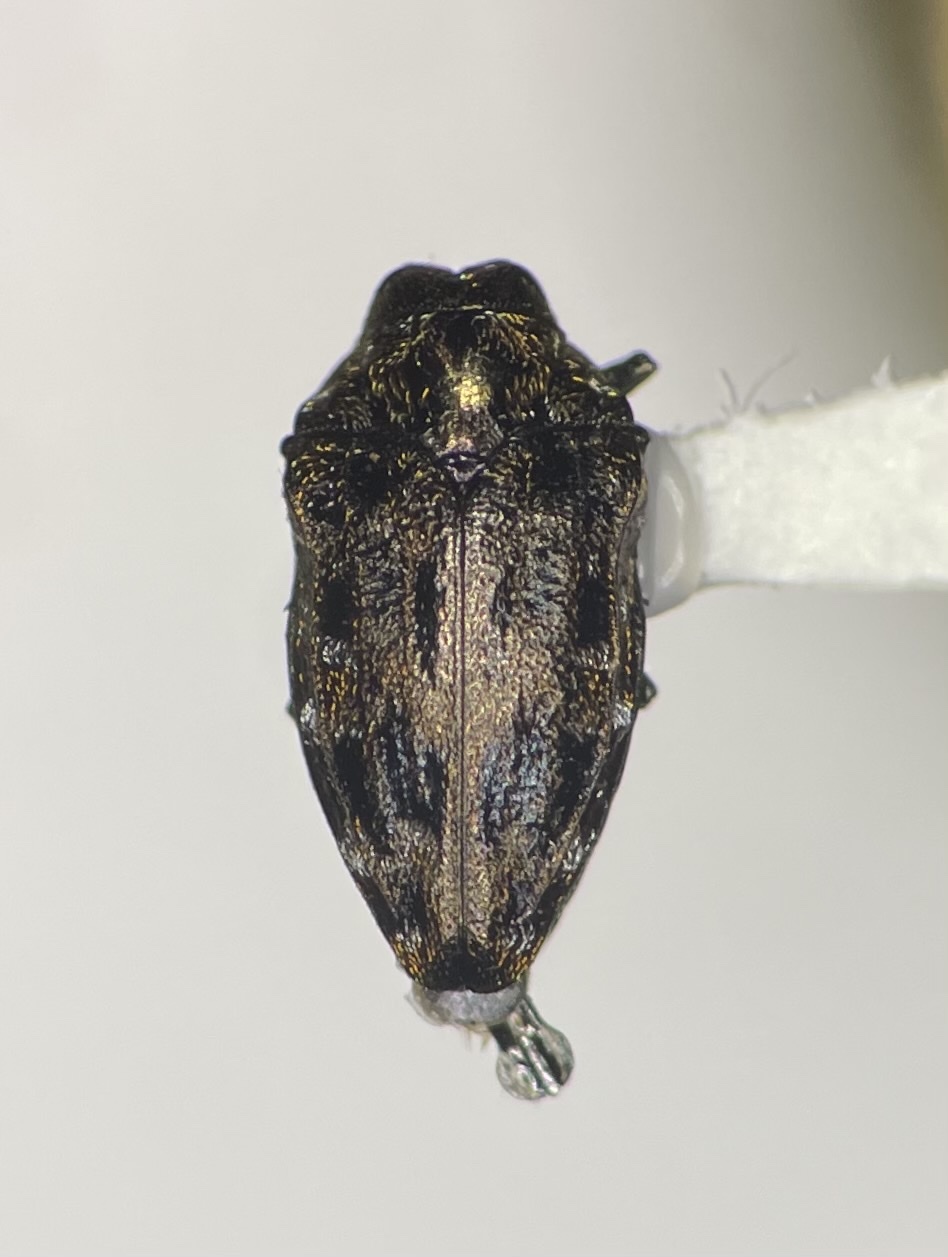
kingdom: Animalia
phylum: Arthropoda
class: Insecta
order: Coleoptera
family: Buprestidae
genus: Brachys
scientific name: Brachys aerosus
